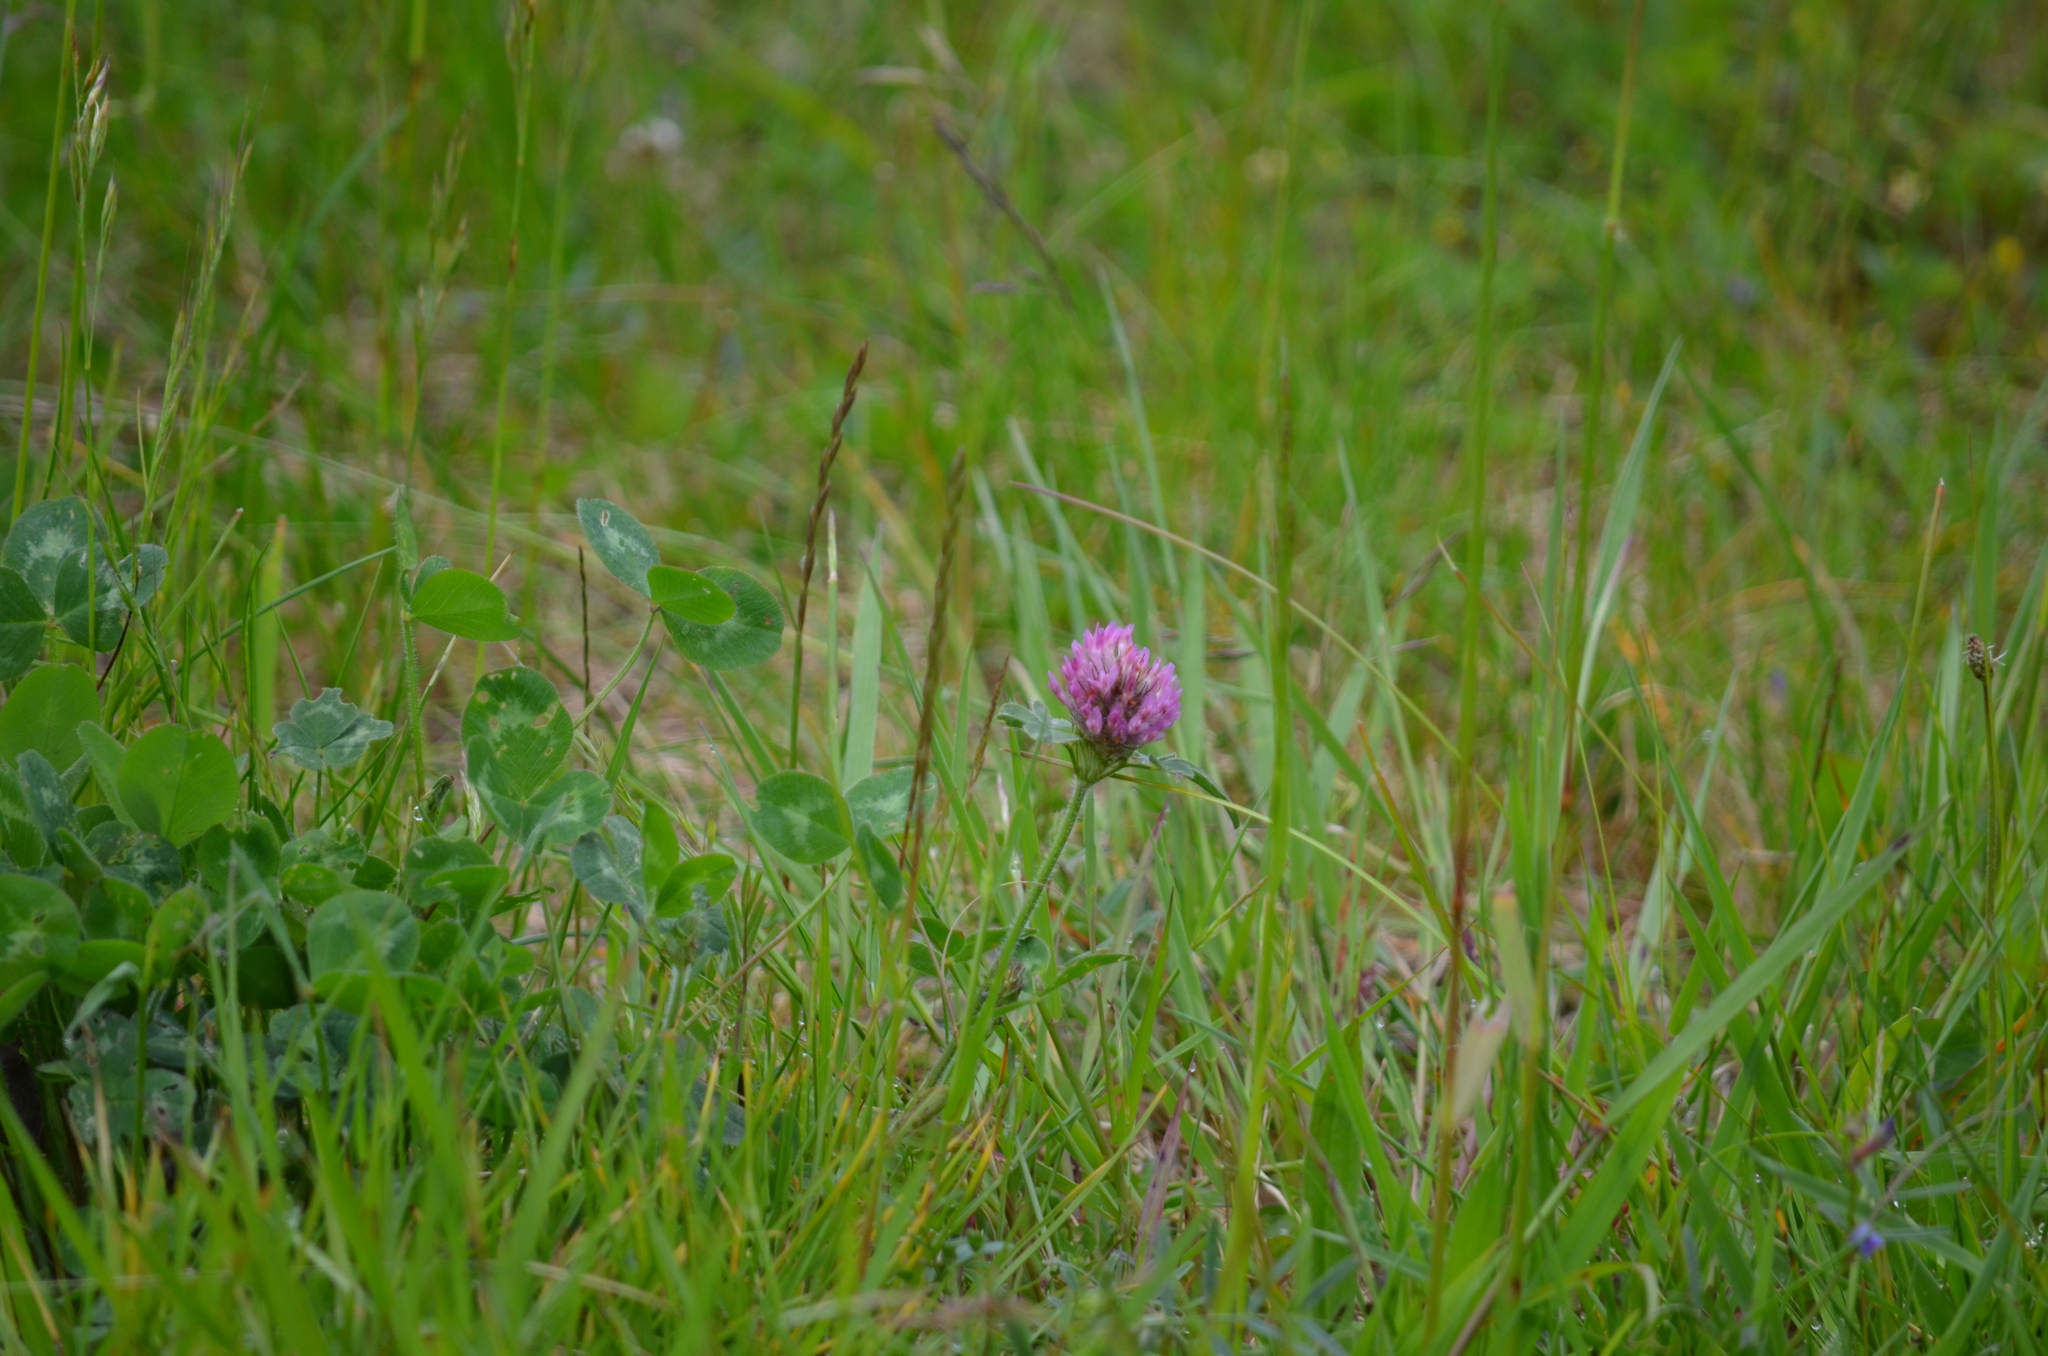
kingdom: Plantae
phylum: Tracheophyta
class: Magnoliopsida
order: Fabales
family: Fabaceae
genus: Trifolium
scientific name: Trifolium pratense
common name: Red clover
